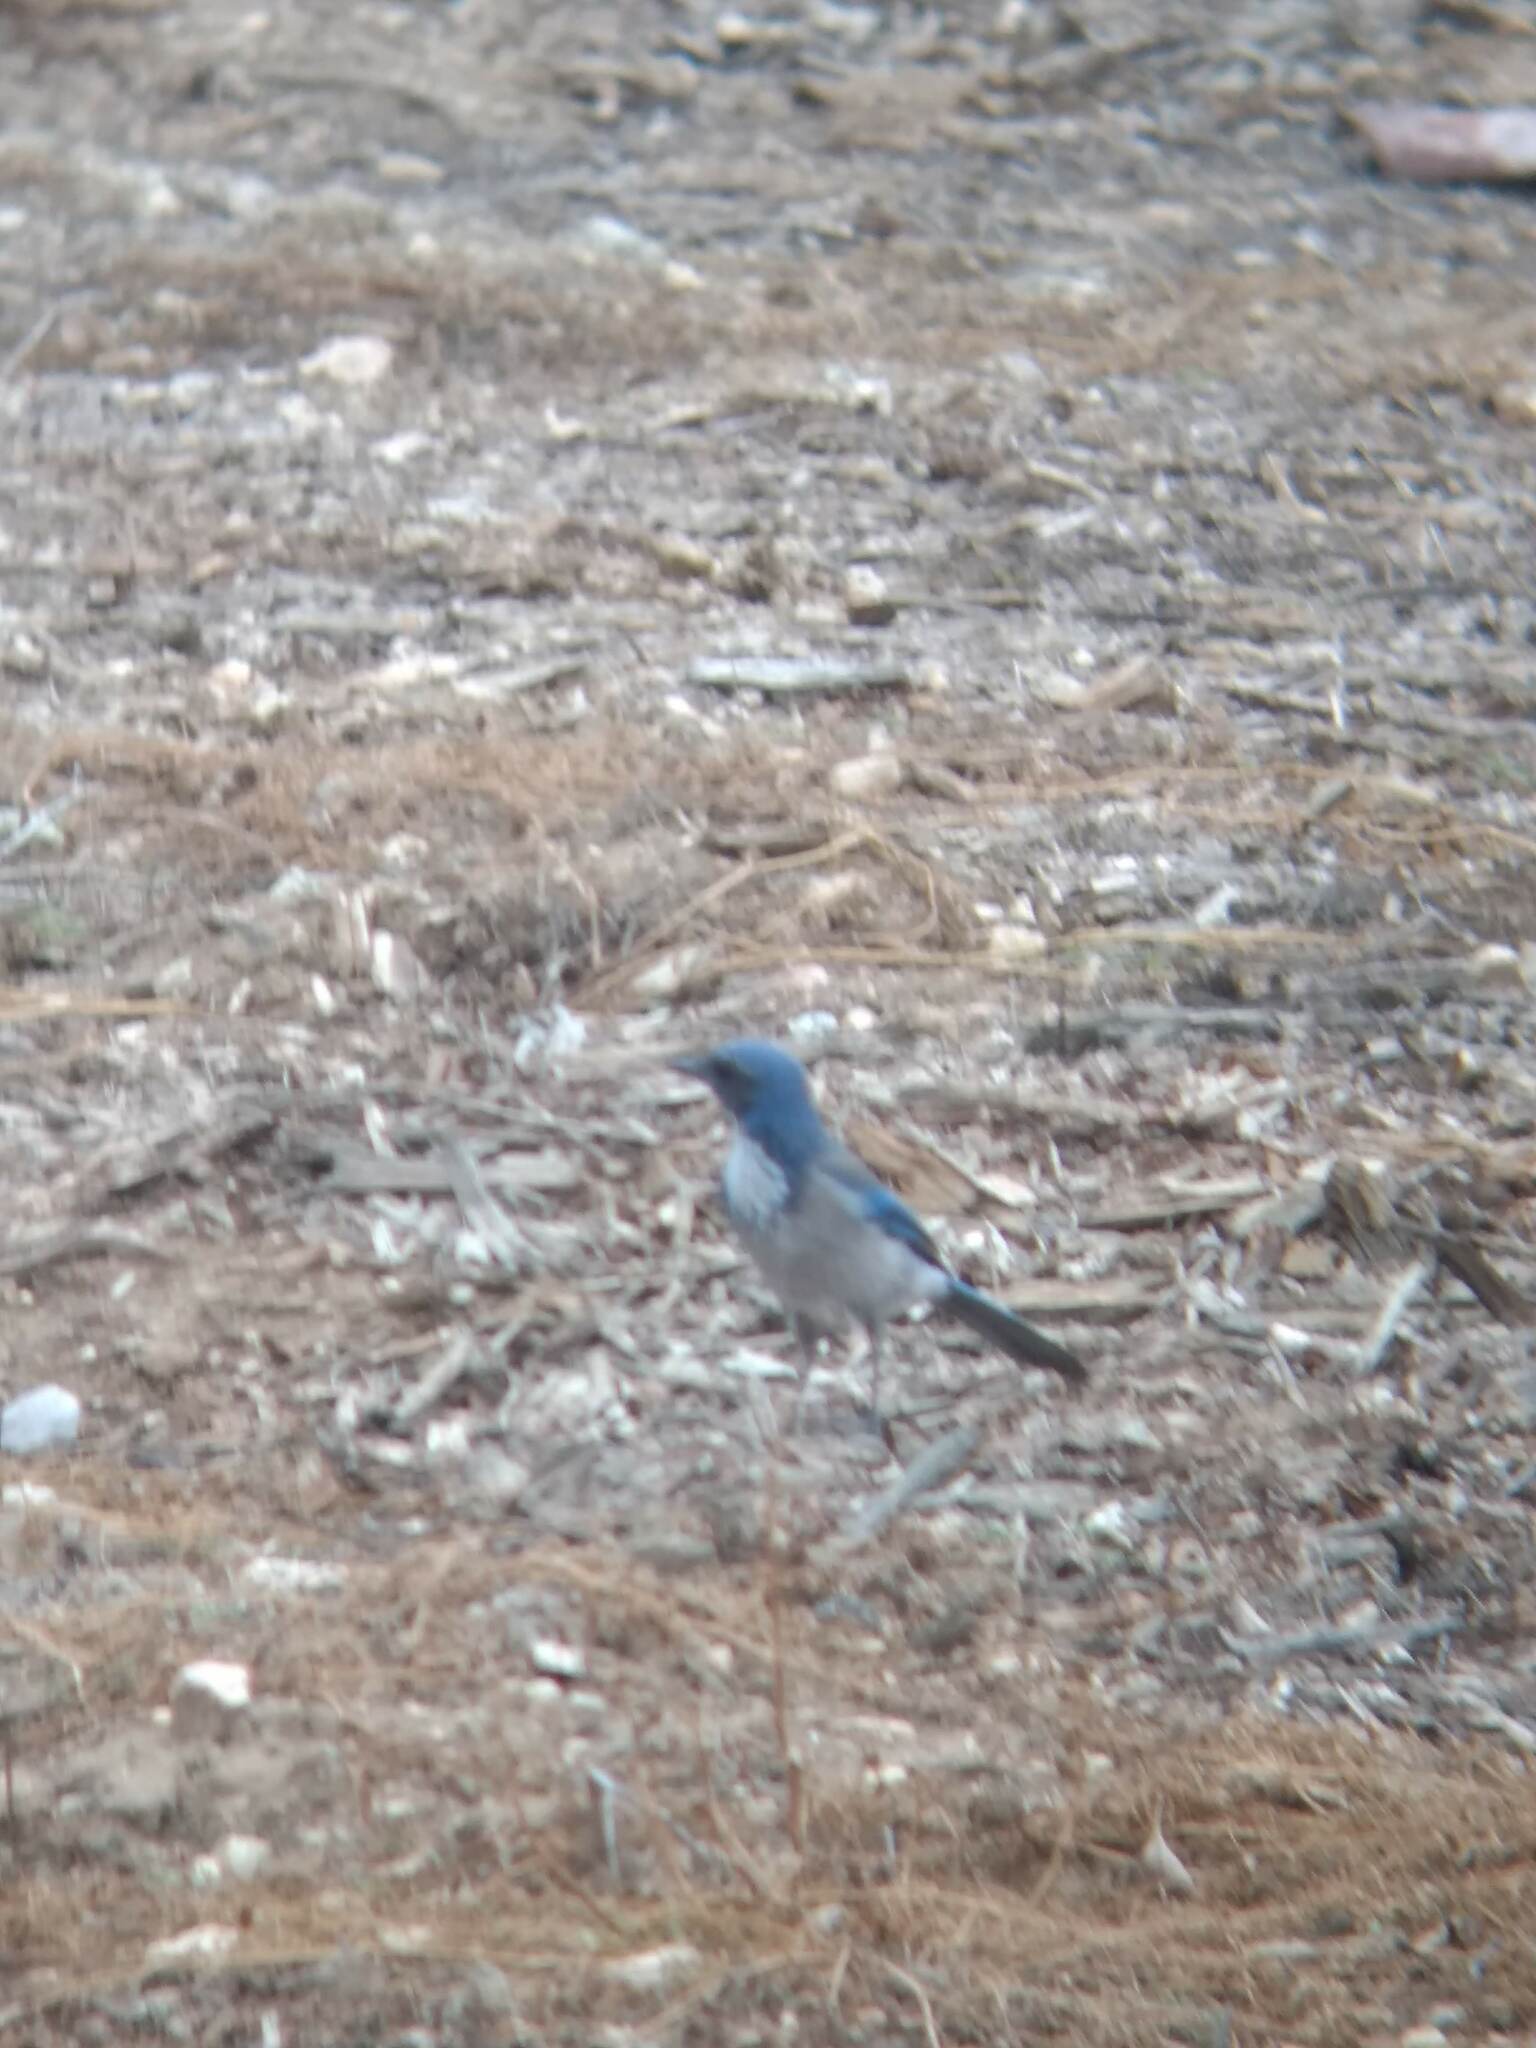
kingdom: Animalia
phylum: Chordata
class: Aves
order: Passeriformes
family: Corvidae
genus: Aphelocoma
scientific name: Aphelocoma californica
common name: California scrub-jay
